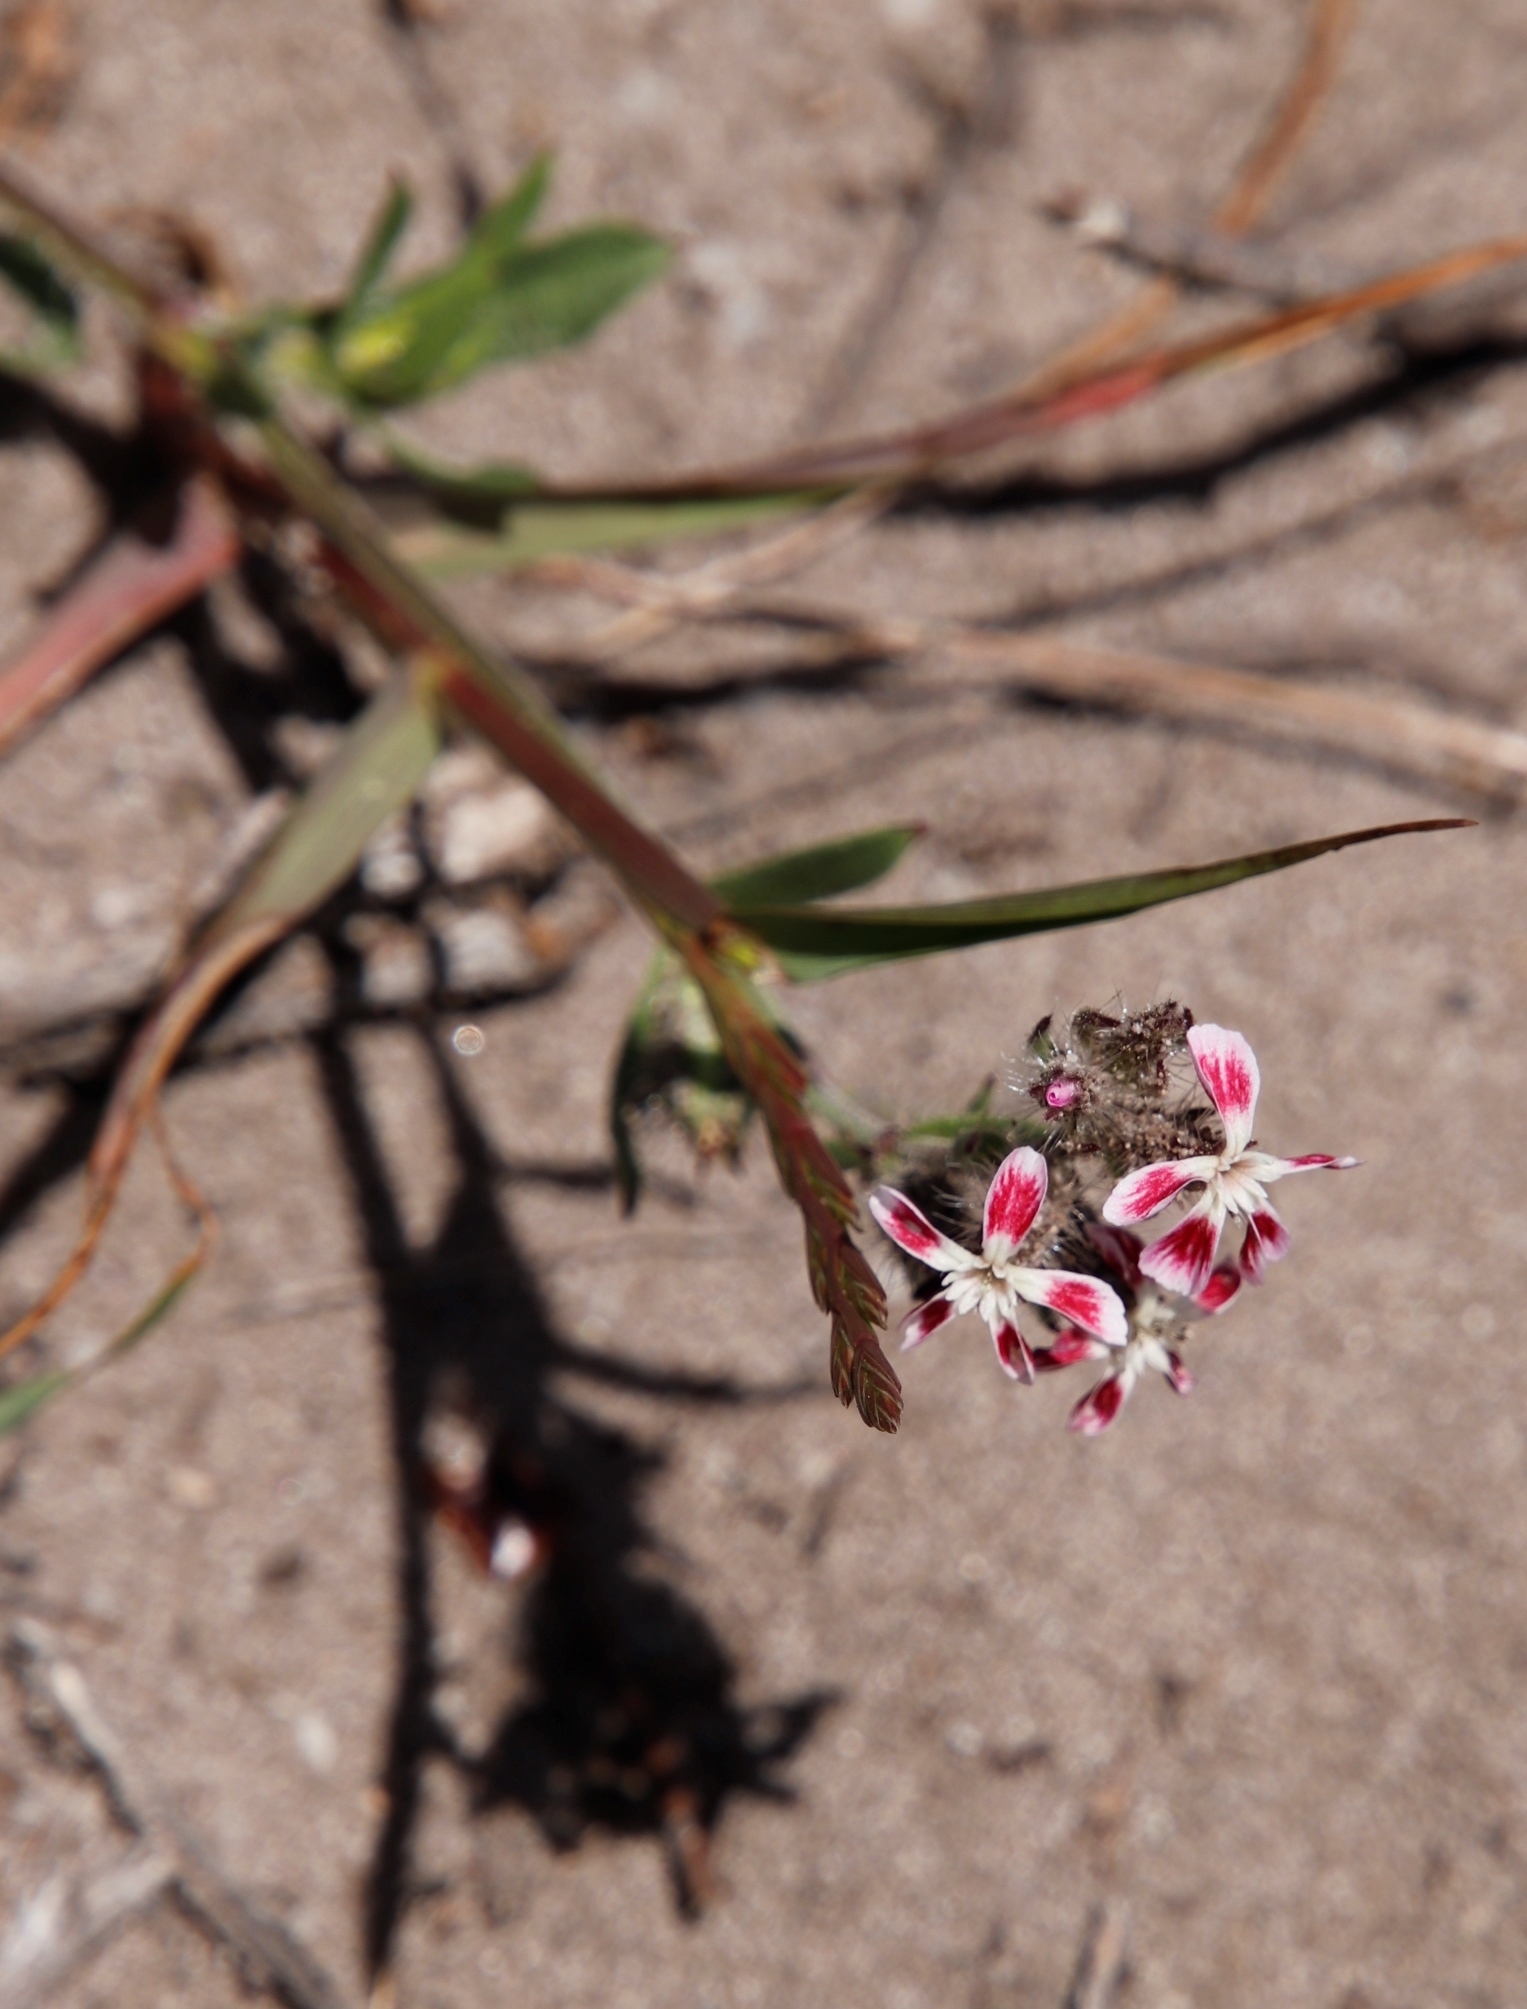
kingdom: Plantae
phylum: Tracheophyta
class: Magnoliopsida
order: Caryophyllales
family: Caryophyllaceae
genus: Silene
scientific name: Silene gallica
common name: Small-flowered catchfly
